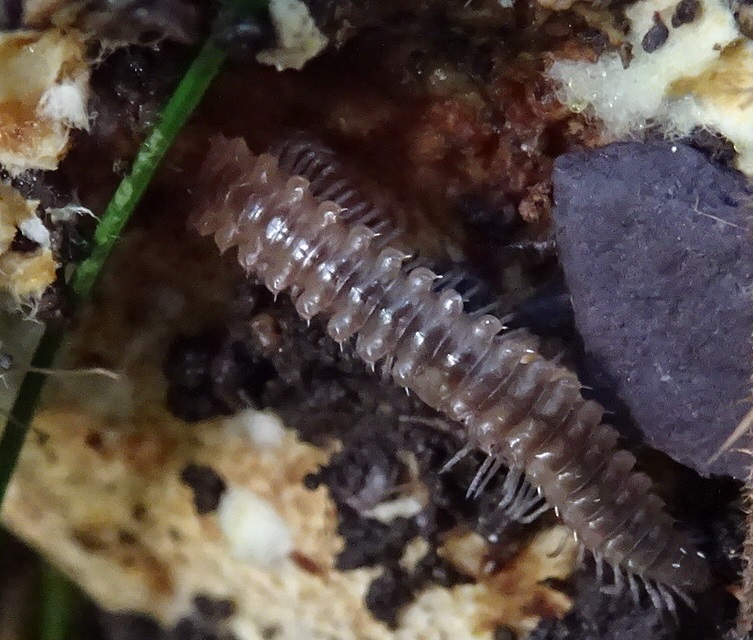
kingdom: Animalia
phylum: Arthropoda
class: Diplopoda
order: Chordeumatida
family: Craspedosomatidae
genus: Nanogona
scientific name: Nanogona polydesmoides
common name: Eyed flat-backed millipede
